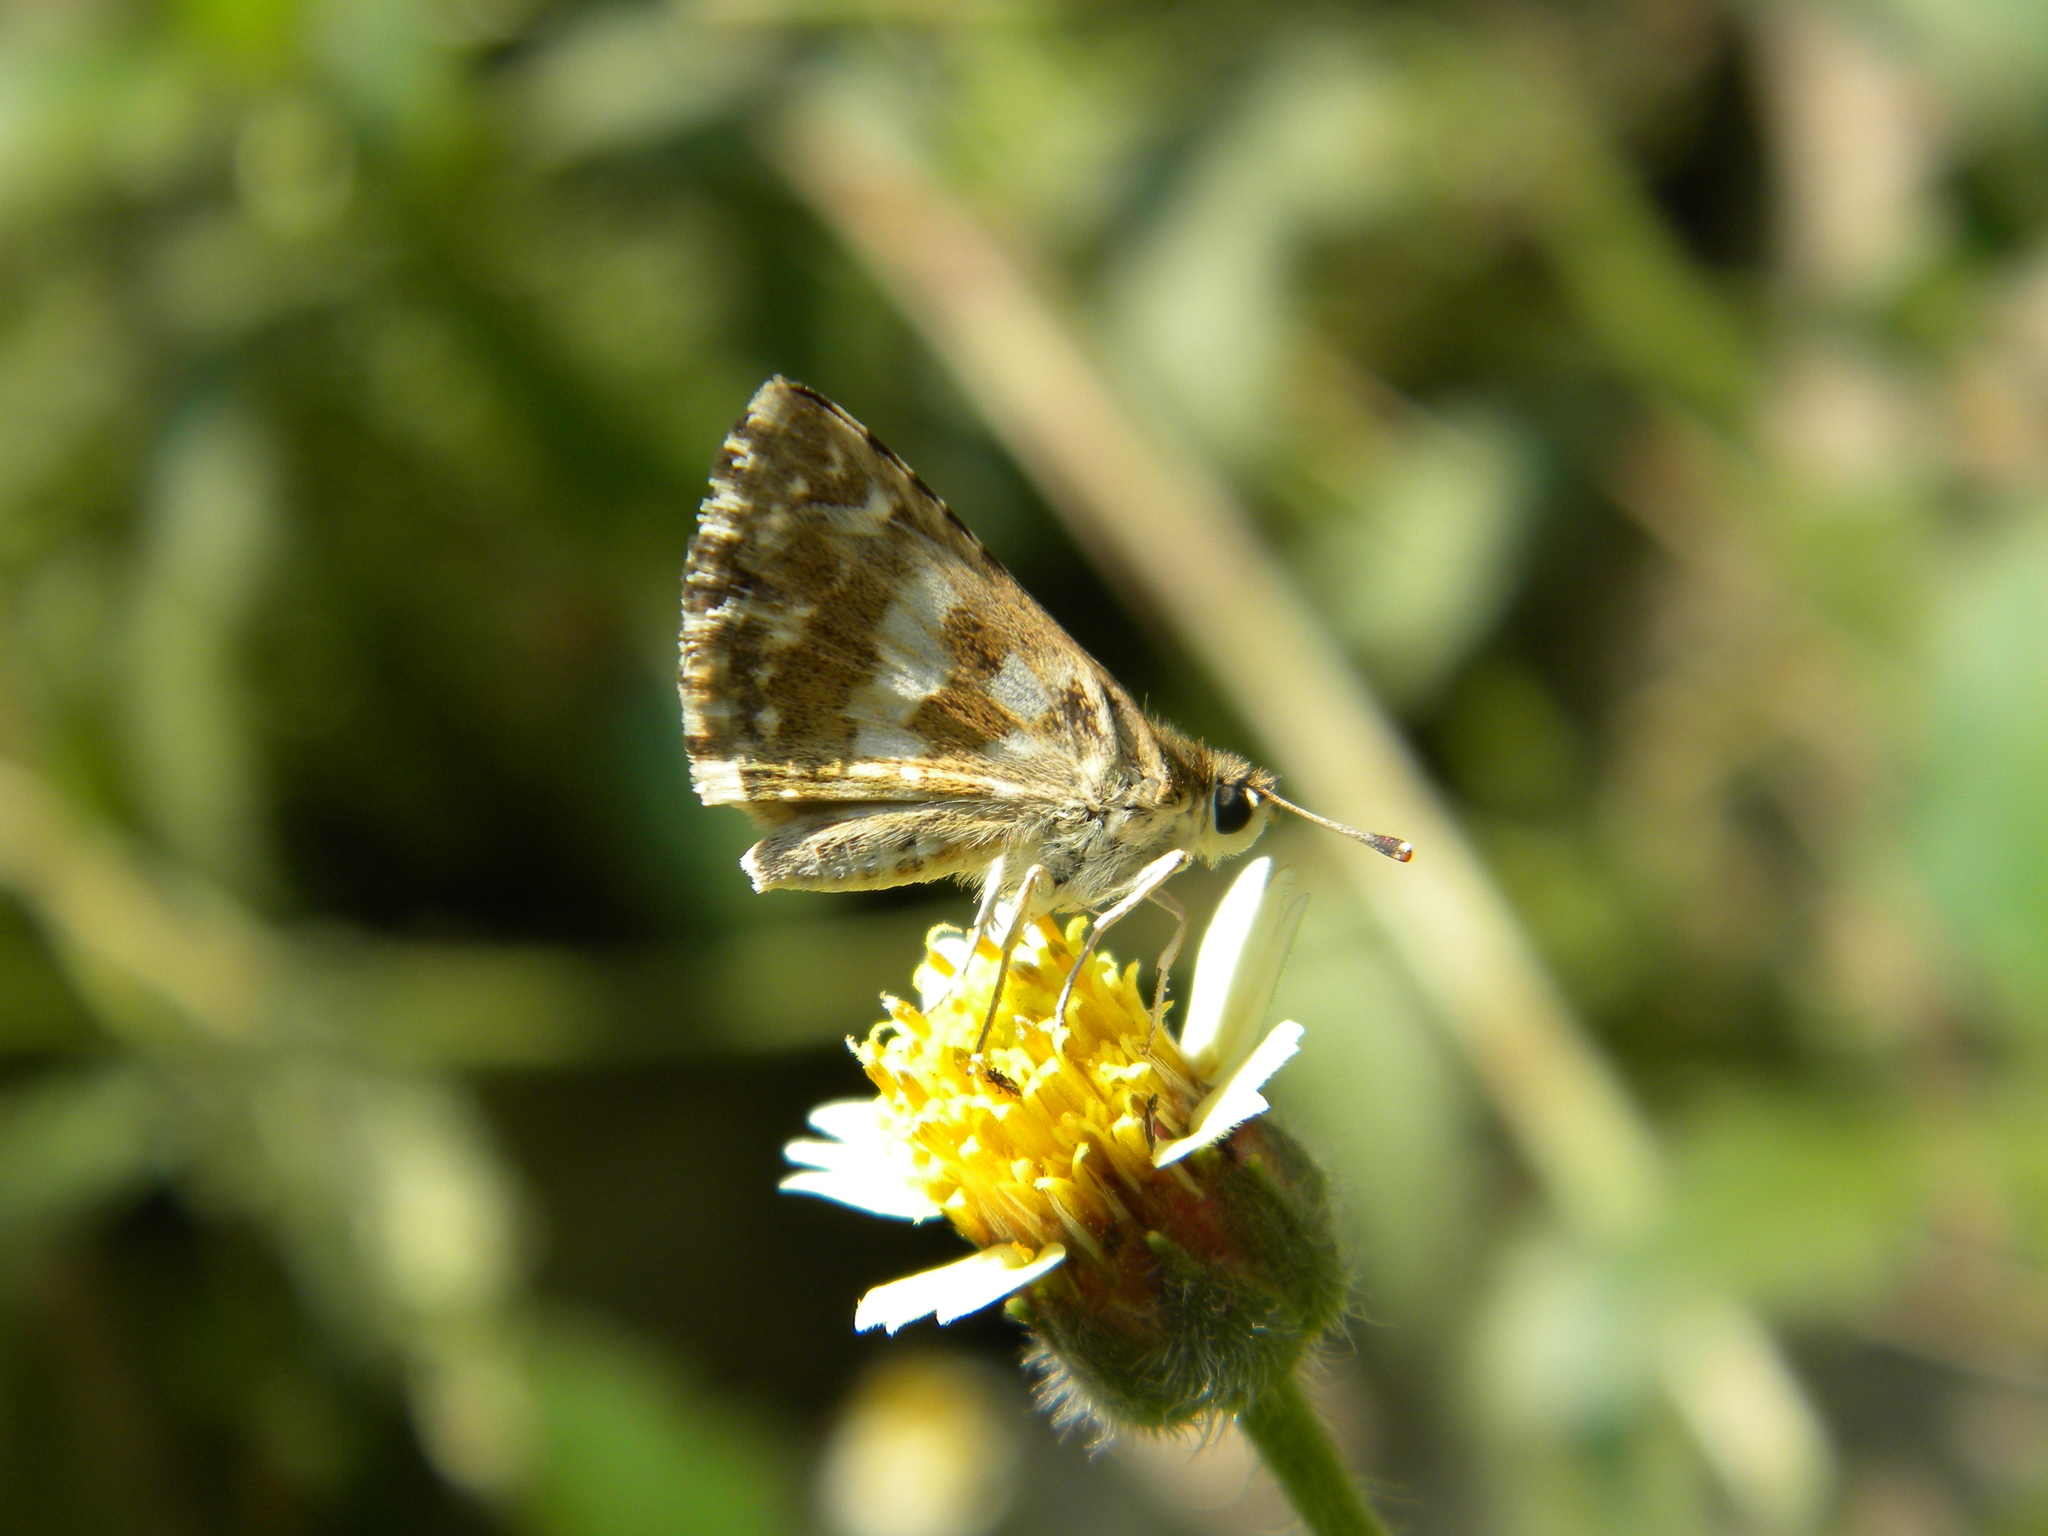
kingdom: Animalia
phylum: Arthropoda
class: Insecta
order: Lepidoptera
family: Hesperiidae
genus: Spialia
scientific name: Spialia galba
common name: Indian skipper
